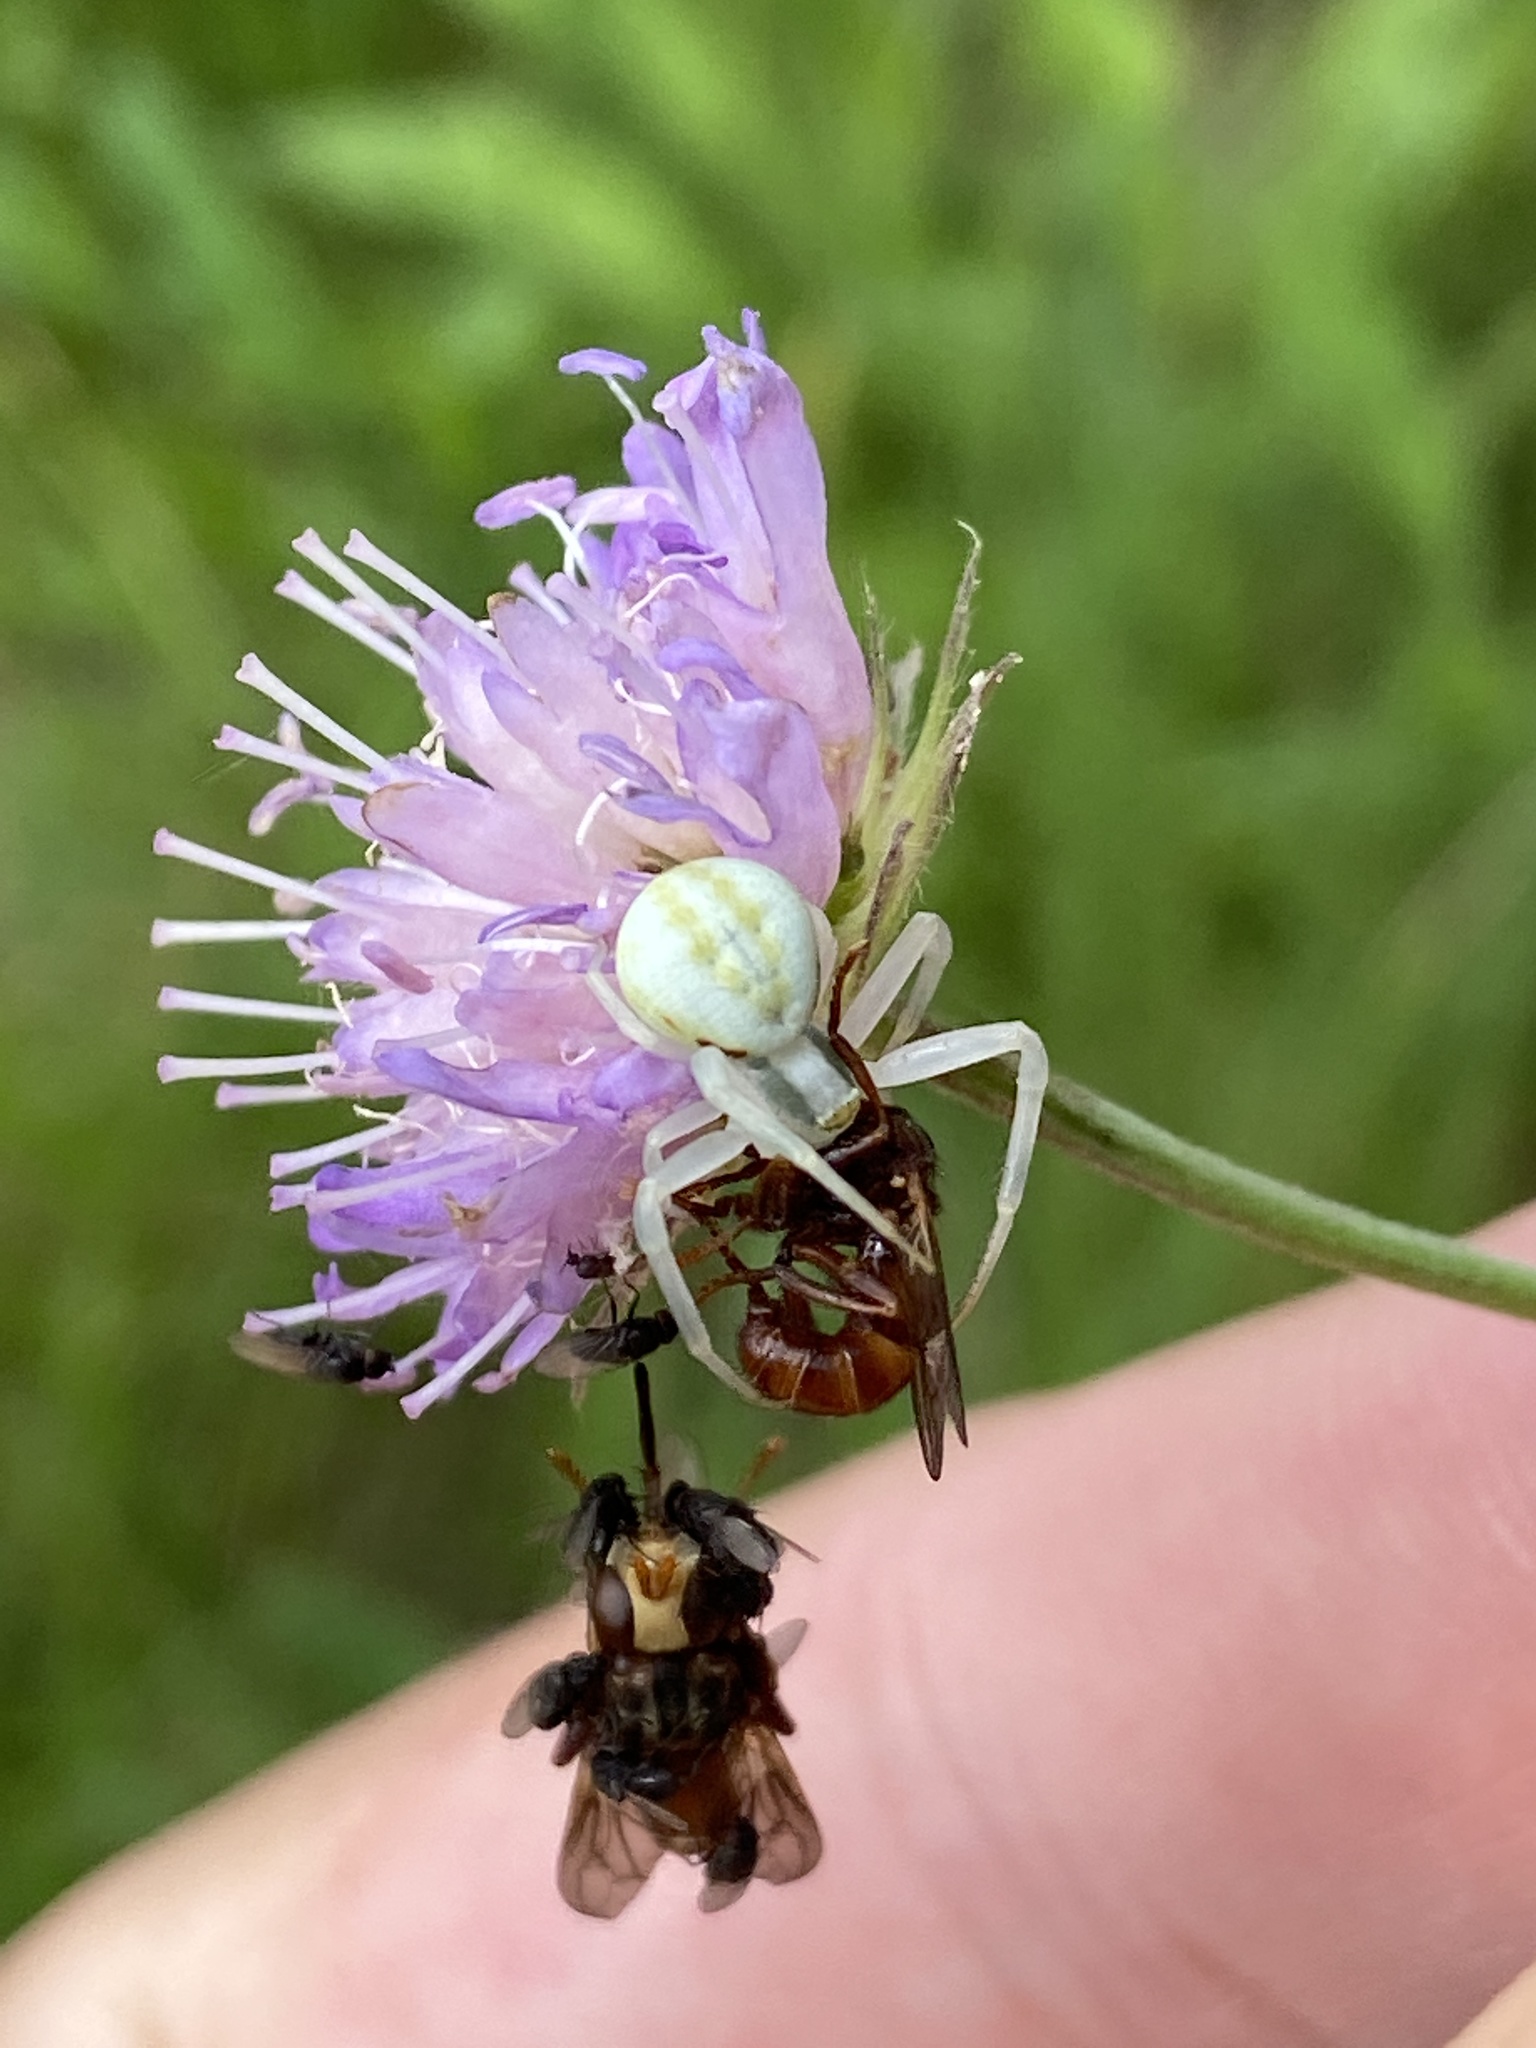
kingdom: Animalia
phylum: Arthropoda
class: Arachnida
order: Araneae
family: Thomisidae
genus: Misumena
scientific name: Misumena vatia
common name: Goldenrod crab spider
